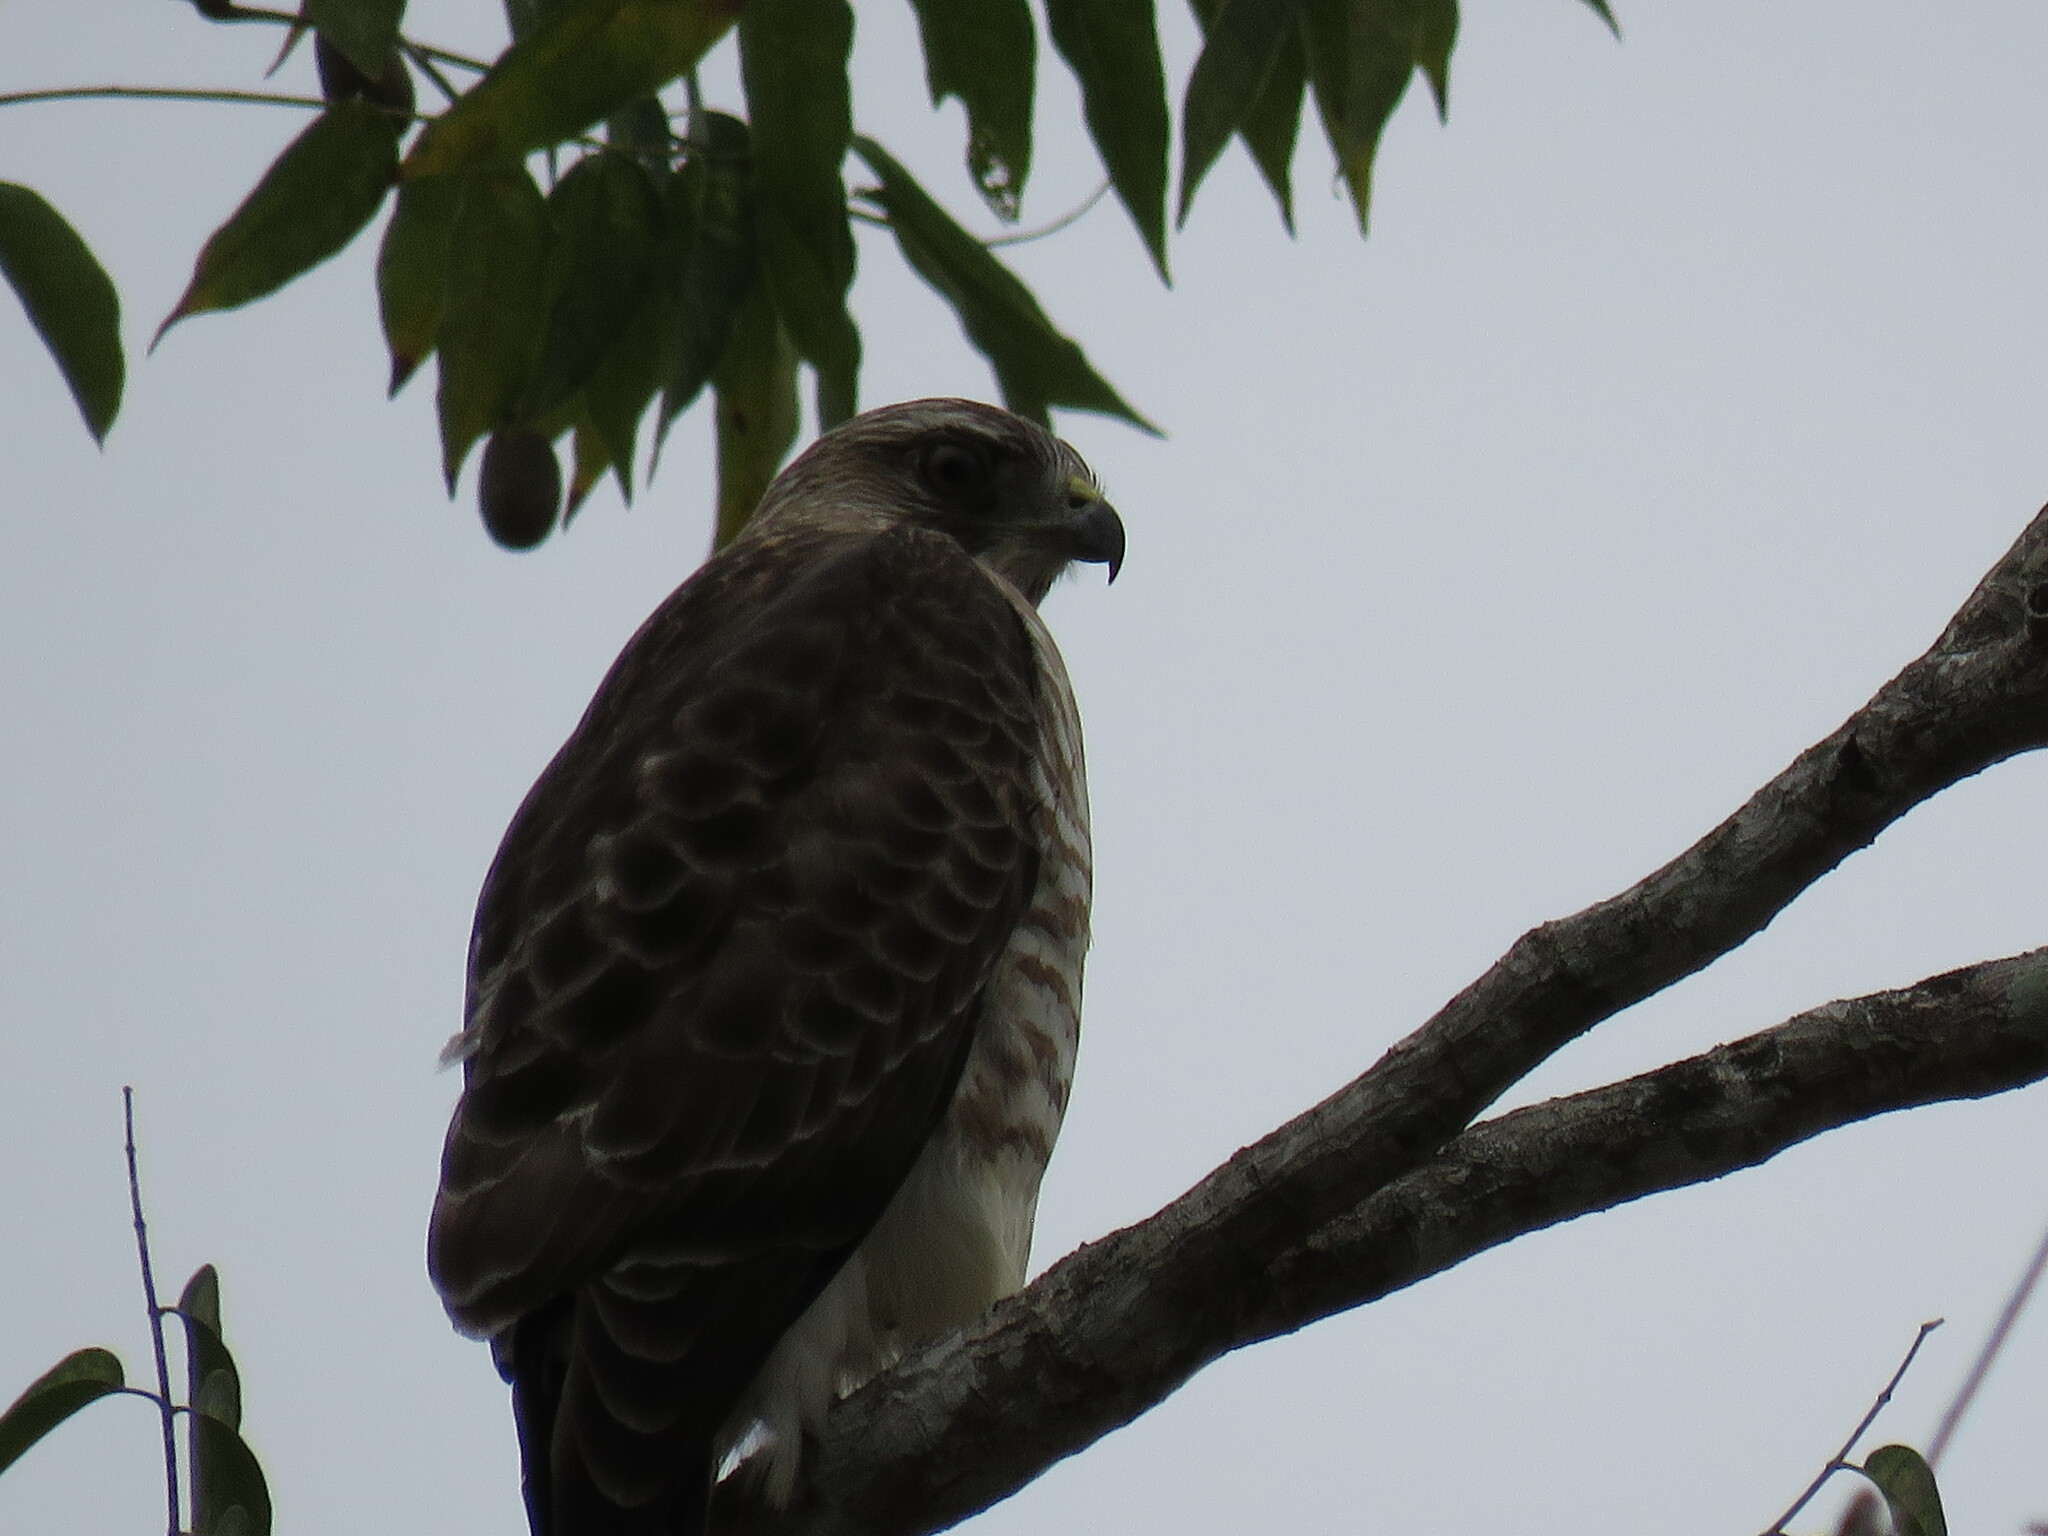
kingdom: Animalia
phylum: Chordata
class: Aves
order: Accipitriformes
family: Accipitridae
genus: Buteo
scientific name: Buteo platypterus
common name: Broad-winged hawk
